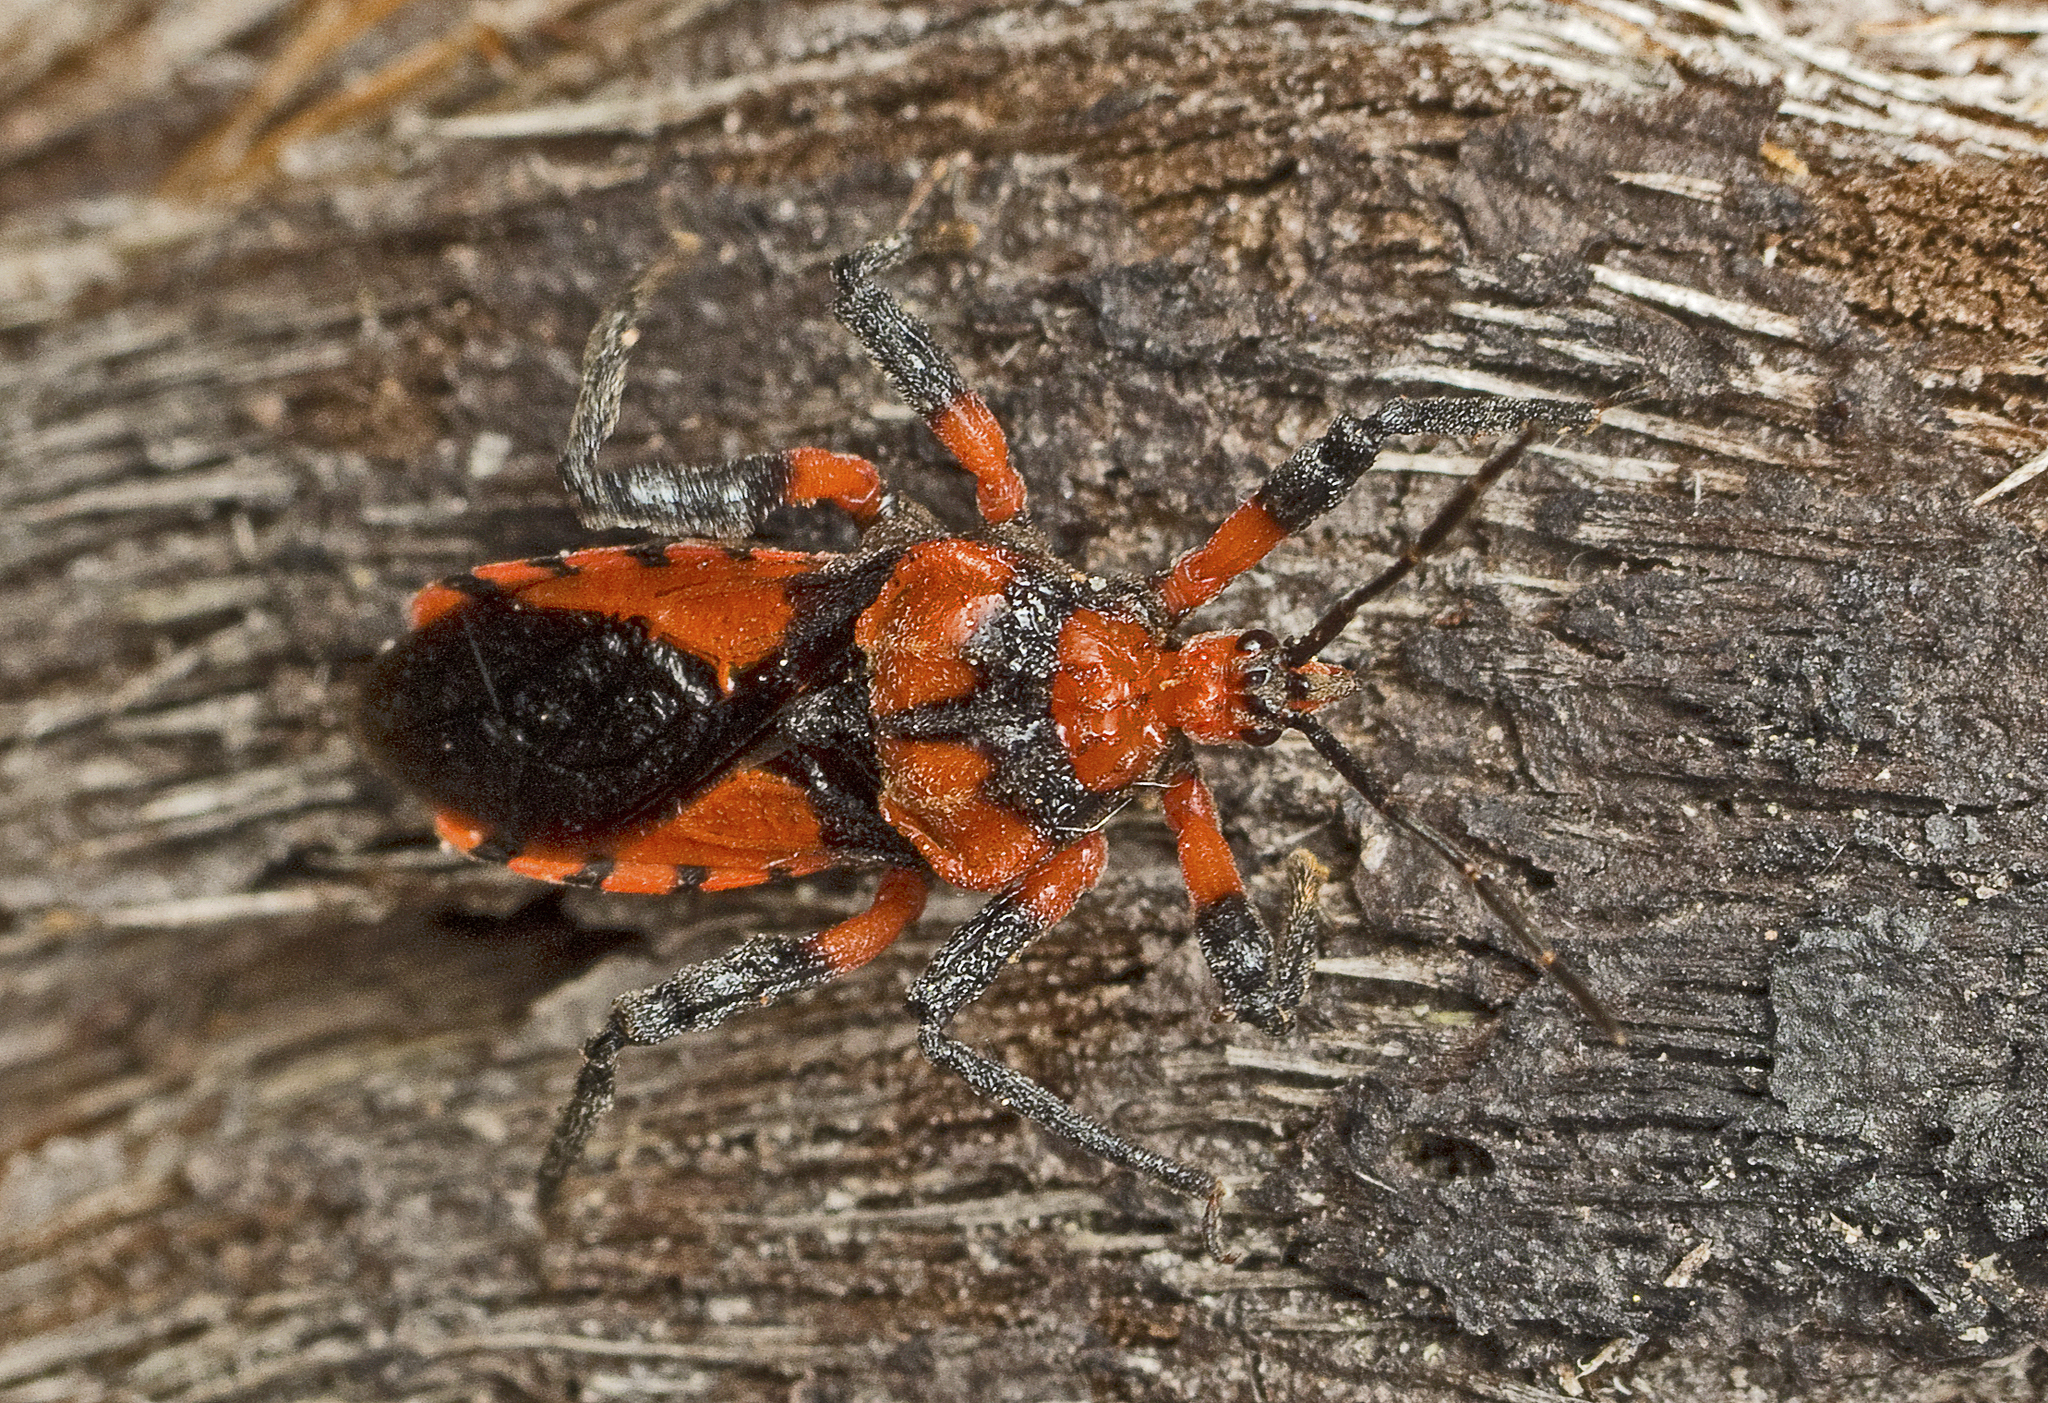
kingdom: Animalia
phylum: Arthropoda
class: Insecta
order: Hemiptera
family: Reduviidae
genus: Tegea
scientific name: Tegea atropicta
